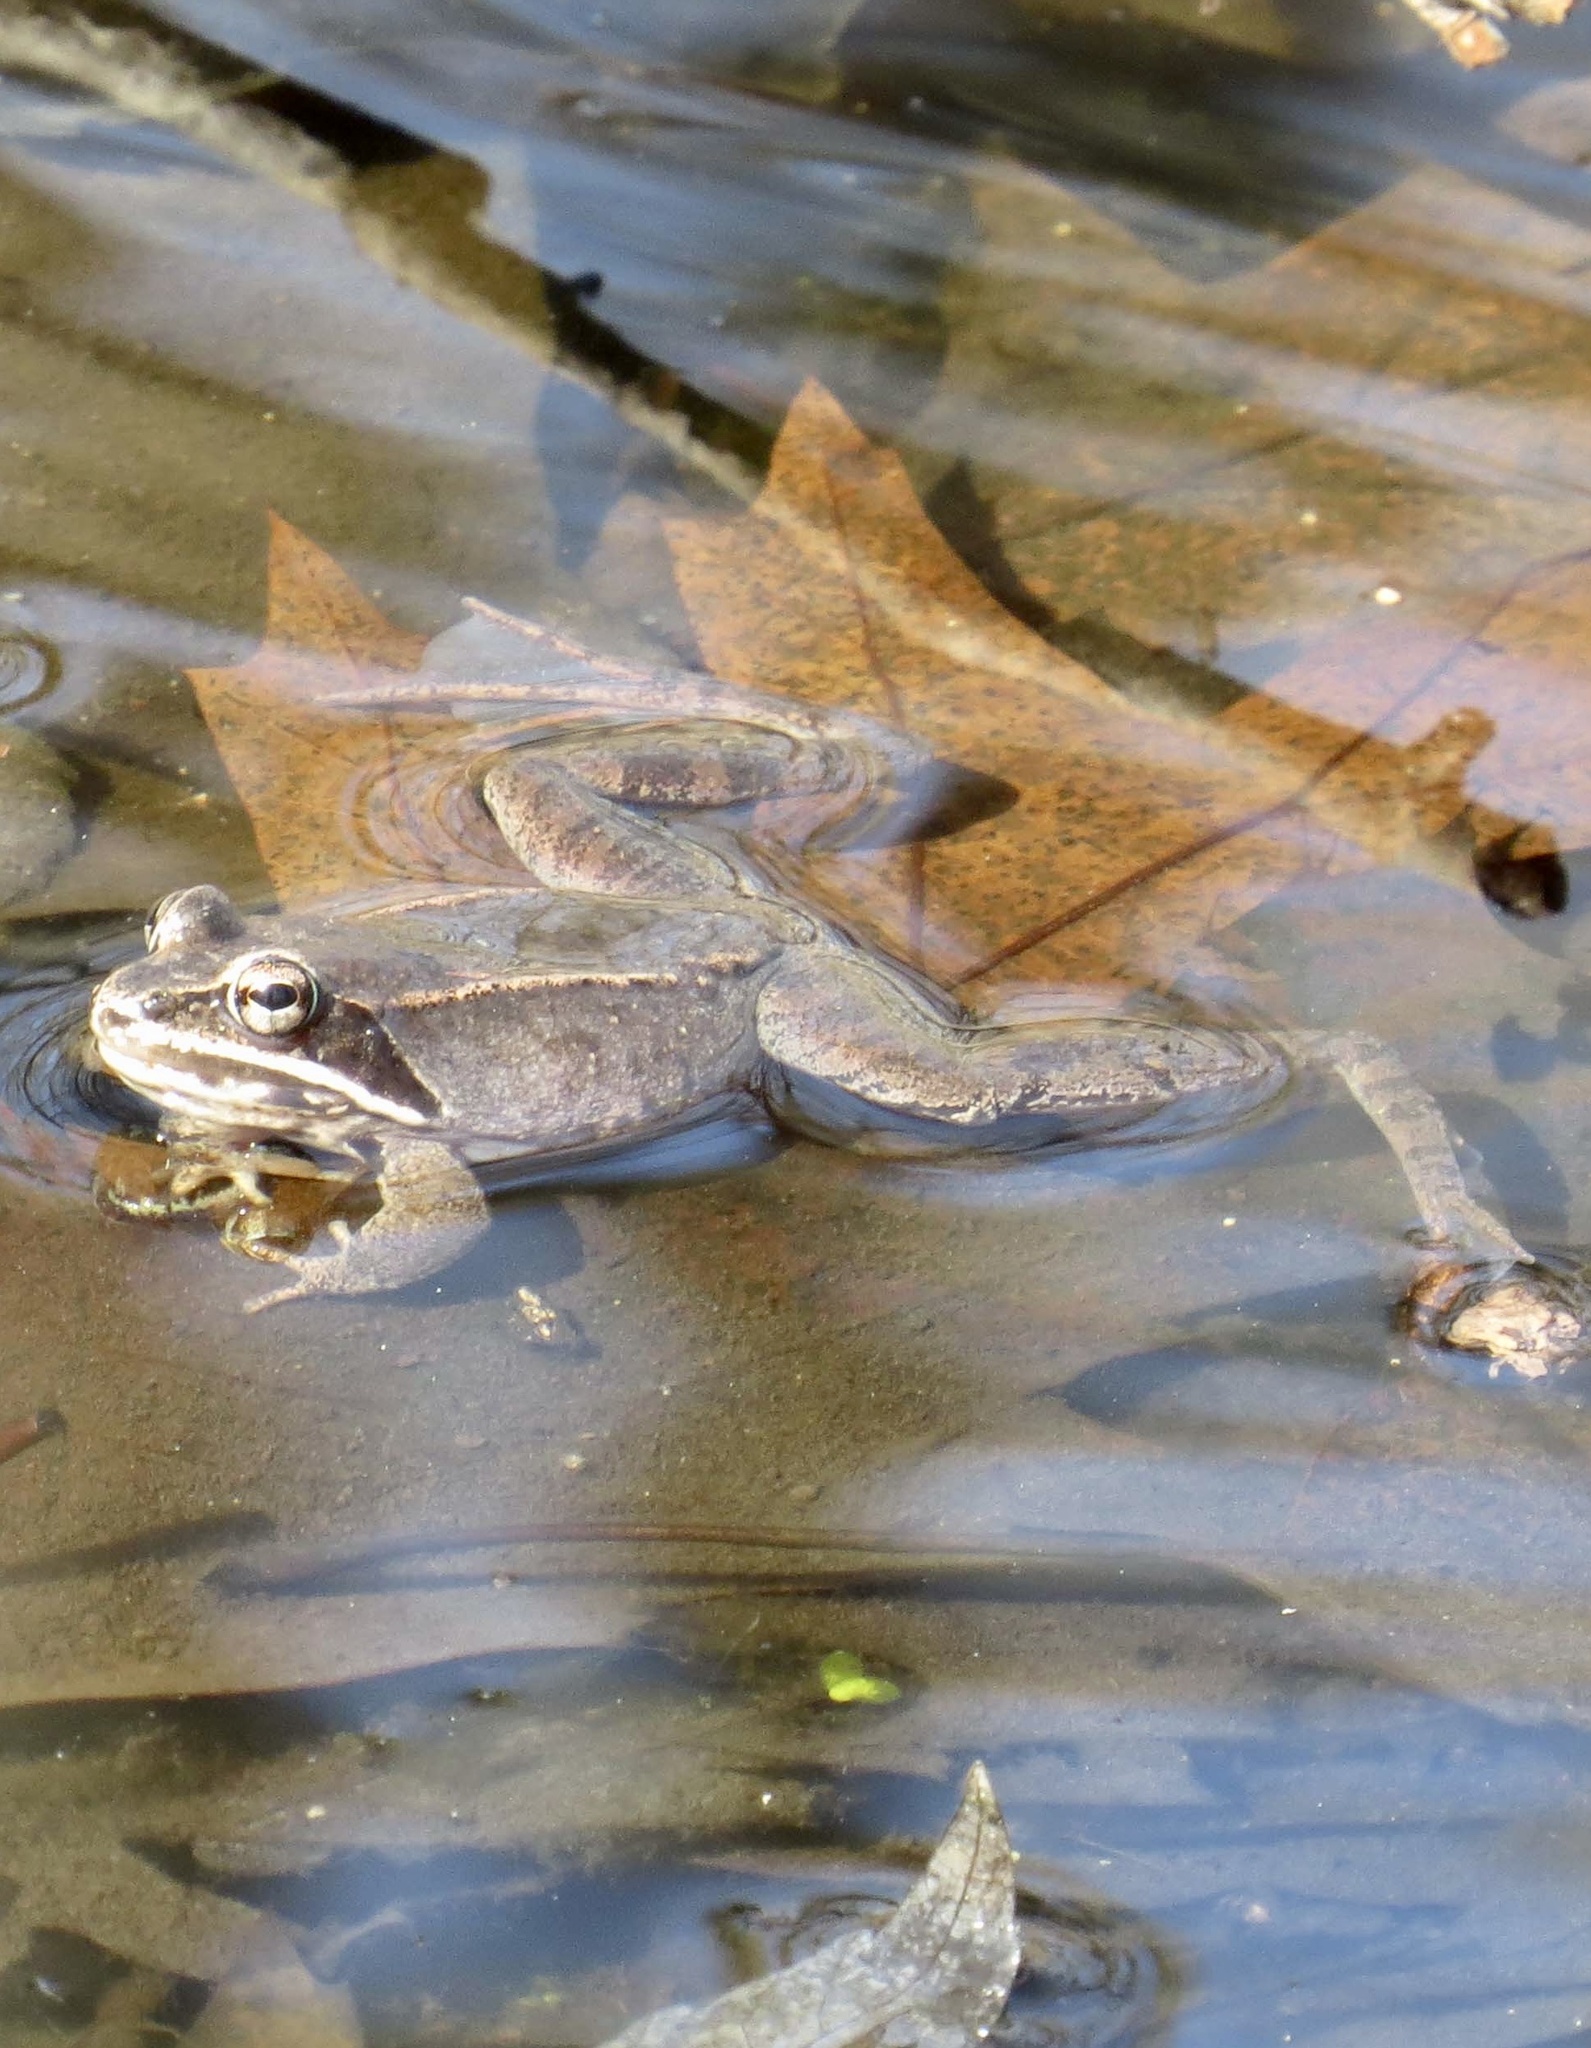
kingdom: Animalia
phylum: Chordata
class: Amphibia
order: Anura
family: Ranidae
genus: Lithobates
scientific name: Lithobates sylvaticus
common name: Wood frog
